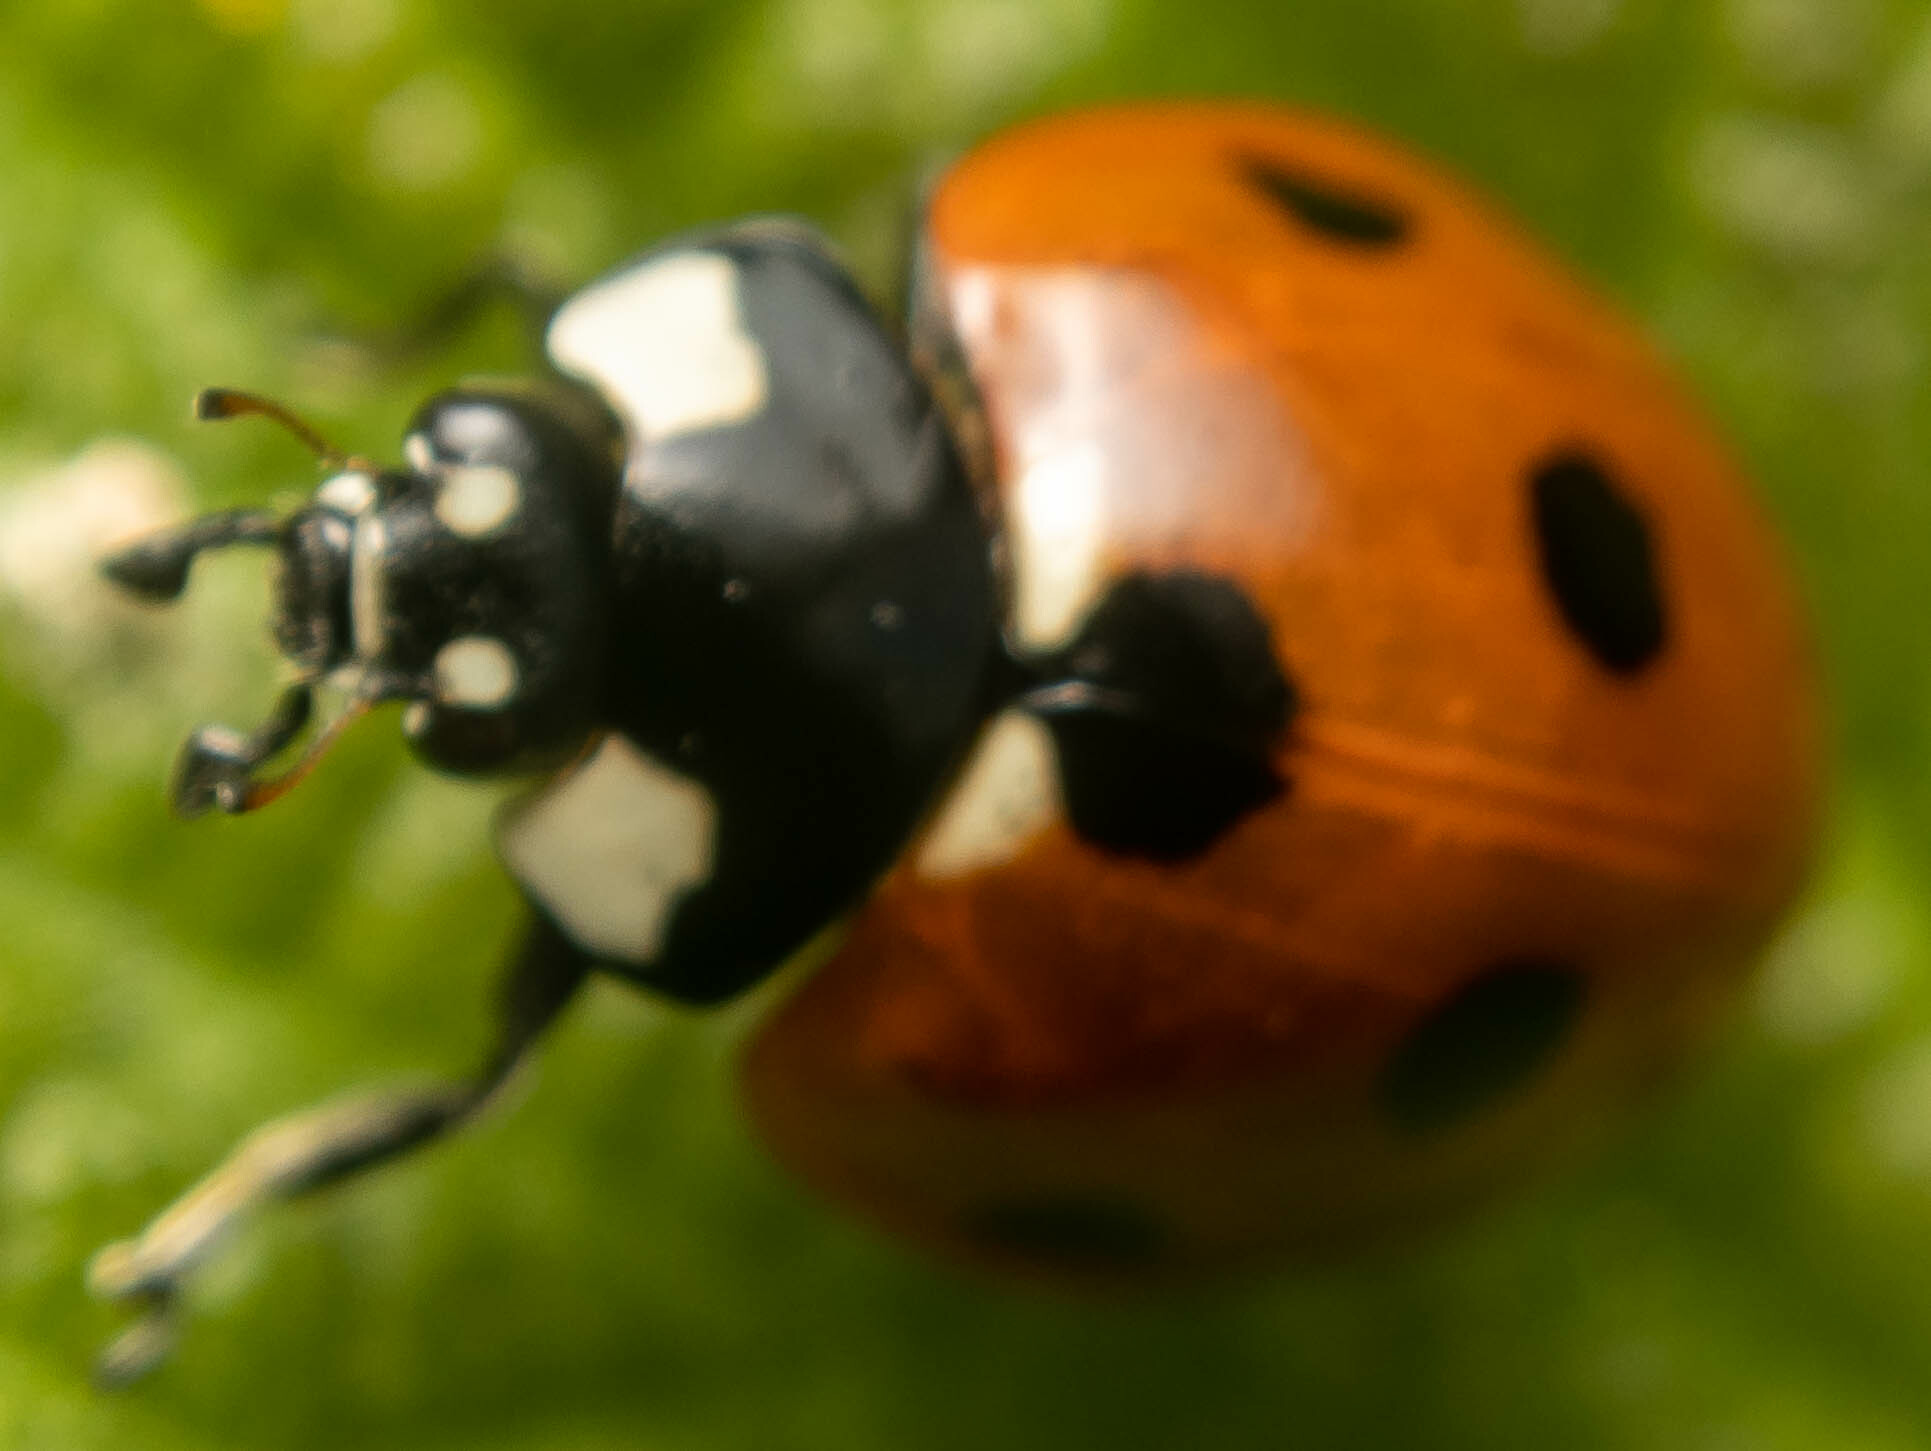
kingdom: Animalia
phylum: Arthropoda
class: Insecta
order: Coleoptera
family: Coccinellidae
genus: Coccinella
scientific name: Coccinella septempunctata
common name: Sevenspotted lady beetle
